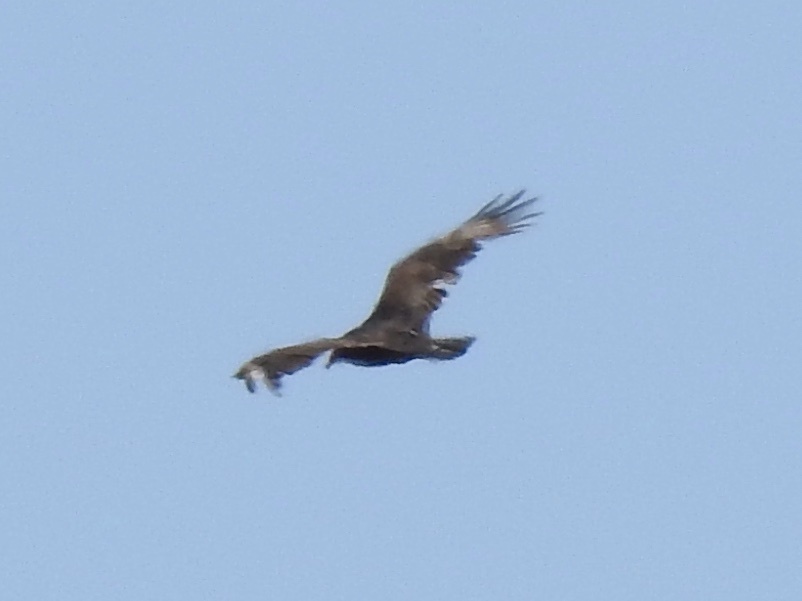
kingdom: Animalia
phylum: Chordata
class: Aves
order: Accipitriformes
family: Cathartidae
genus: Cathartes
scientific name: Cathartes aura
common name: Turkey vulture
